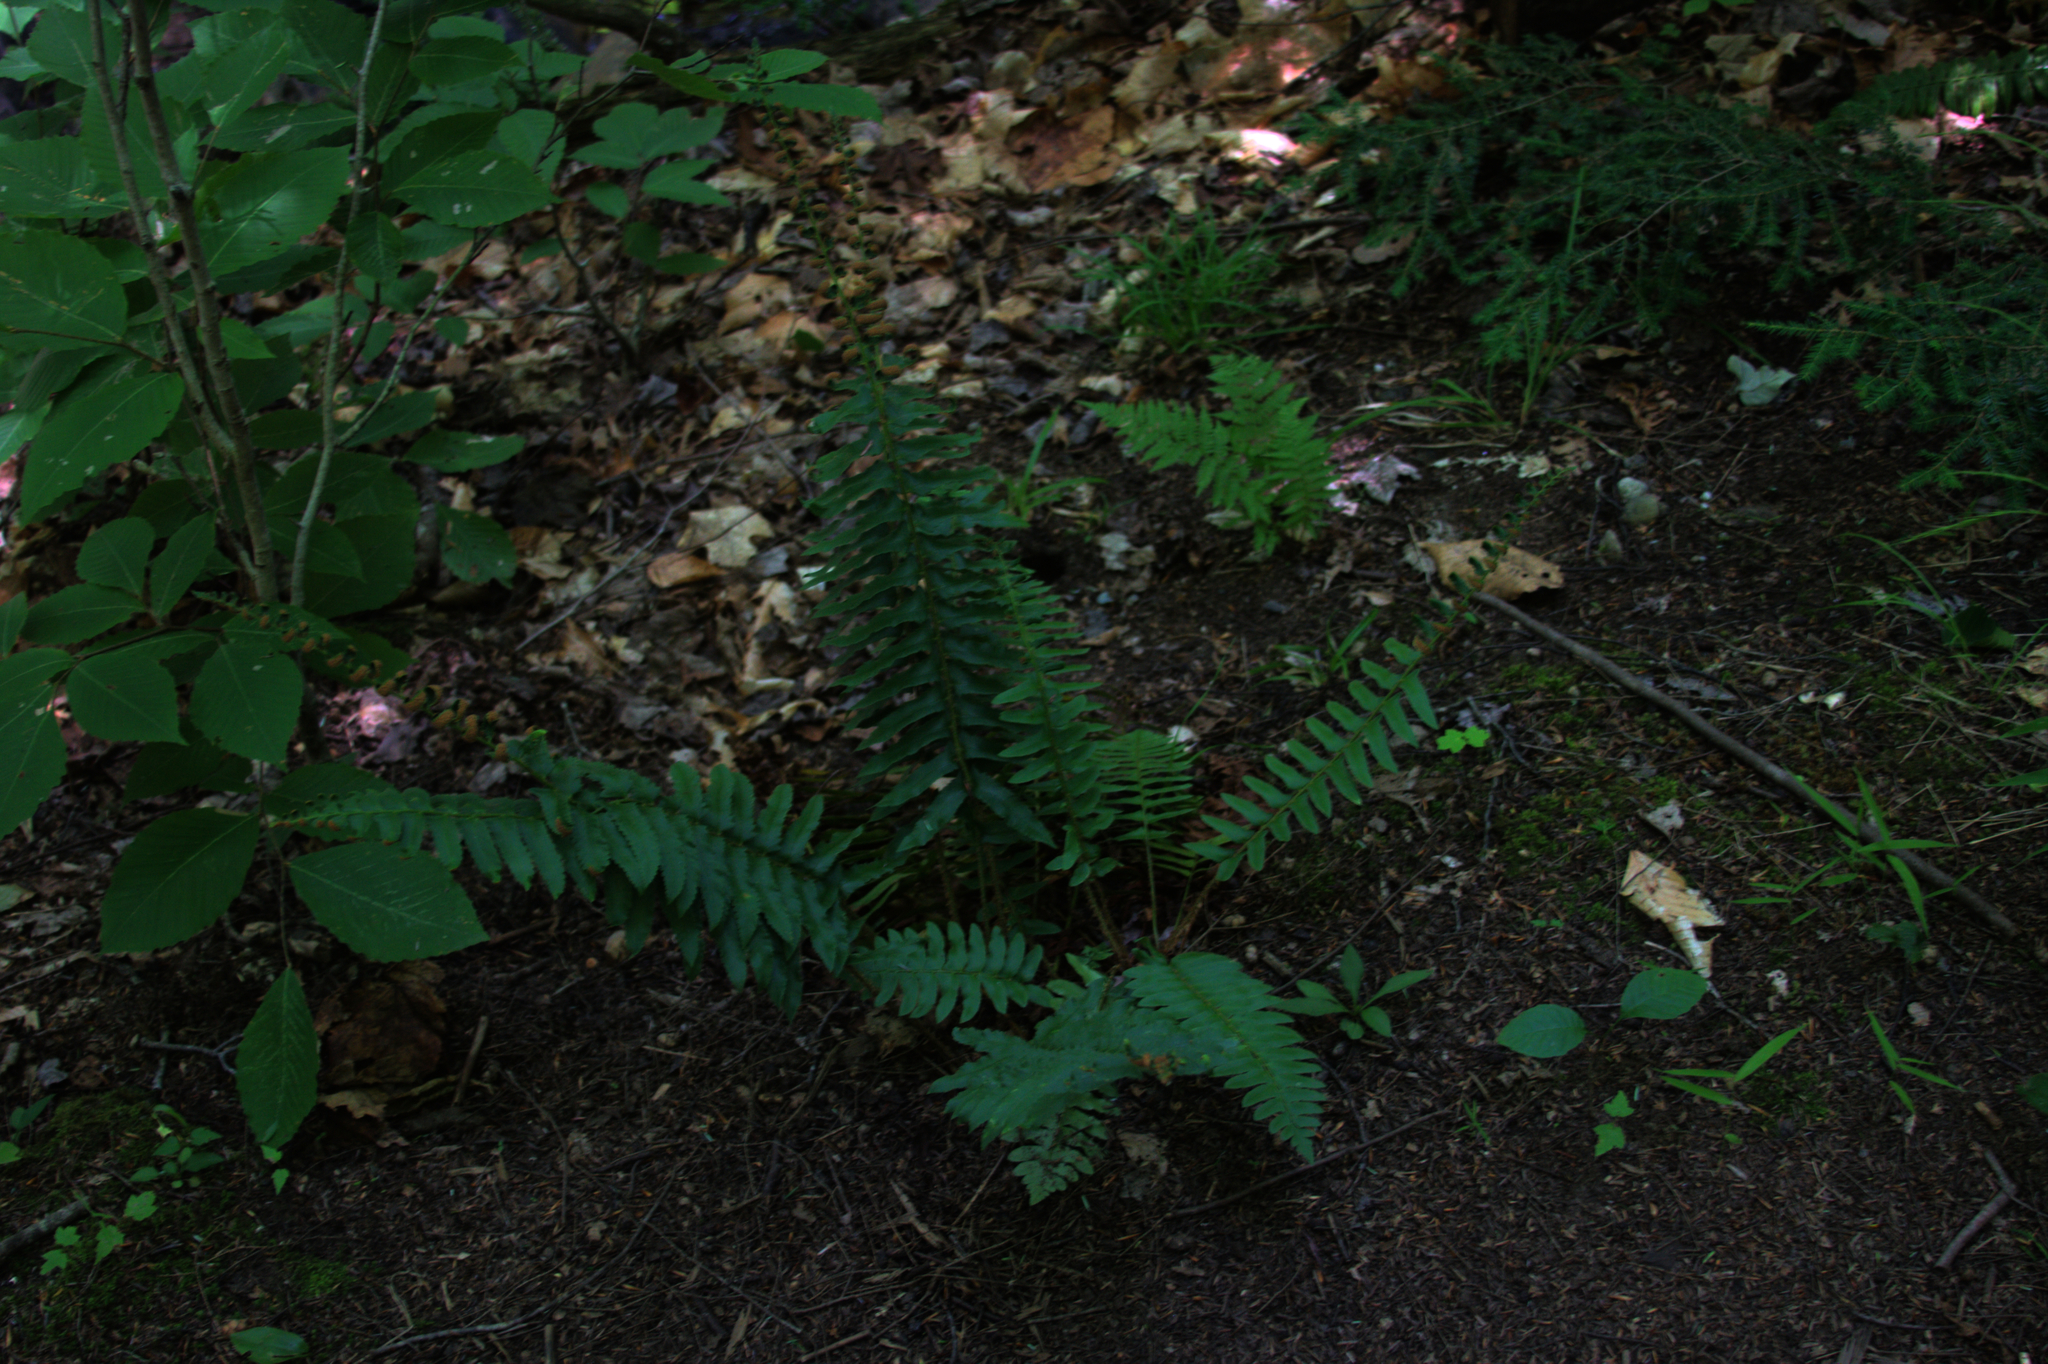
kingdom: Plantae
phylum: Tracheophyta
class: Polypodiopsida
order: Polypodiales
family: Dryopteridaceae
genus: Polystichum
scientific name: Polystichum acrostichoides
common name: Christmas fern
